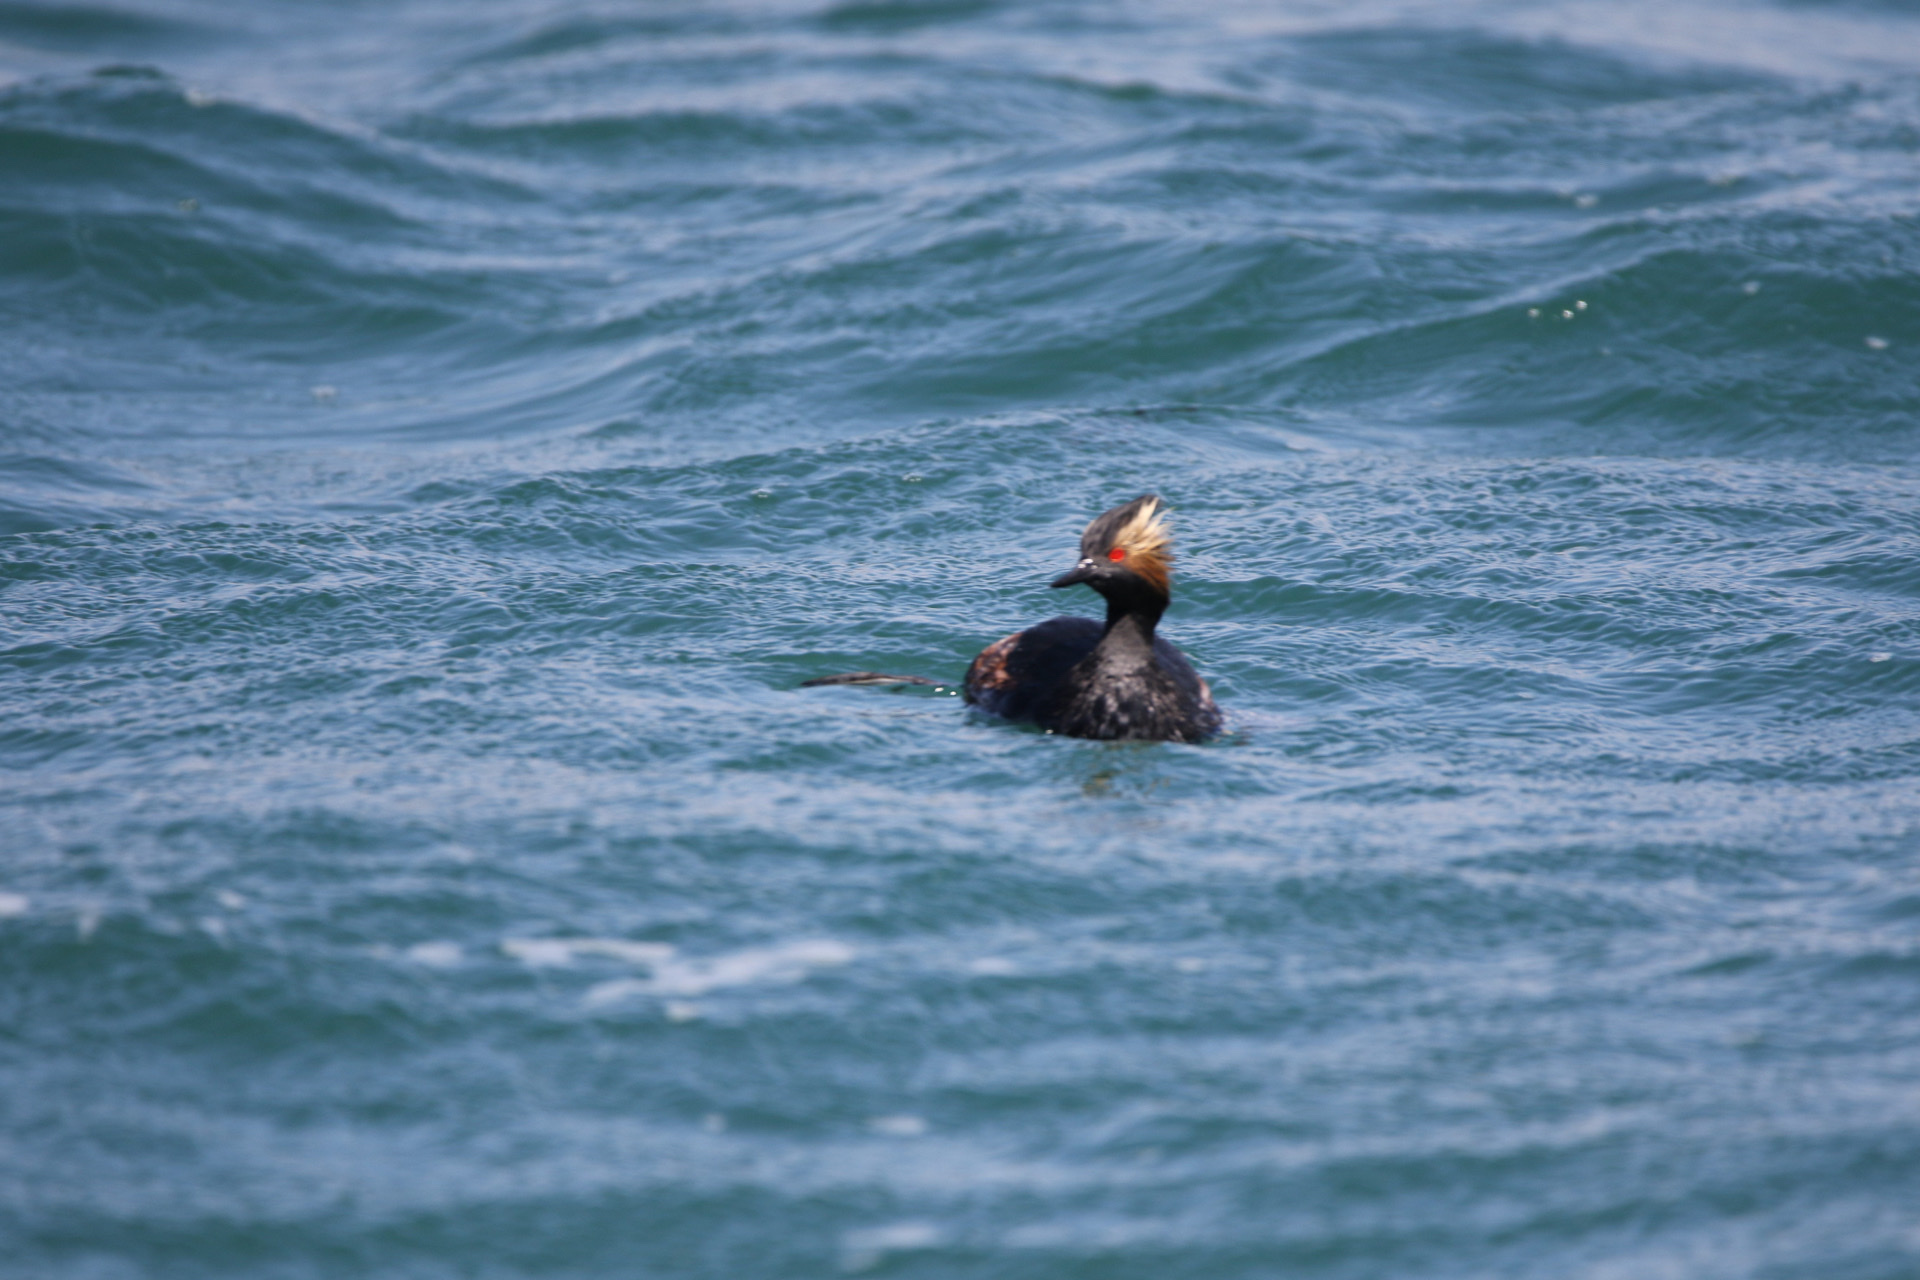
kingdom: Animalia
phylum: Chordata
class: Aves
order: Podicipediformes
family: Podicipedidae
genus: Podiceps
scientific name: Podiceps nigricollis
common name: Black-necked grebe
